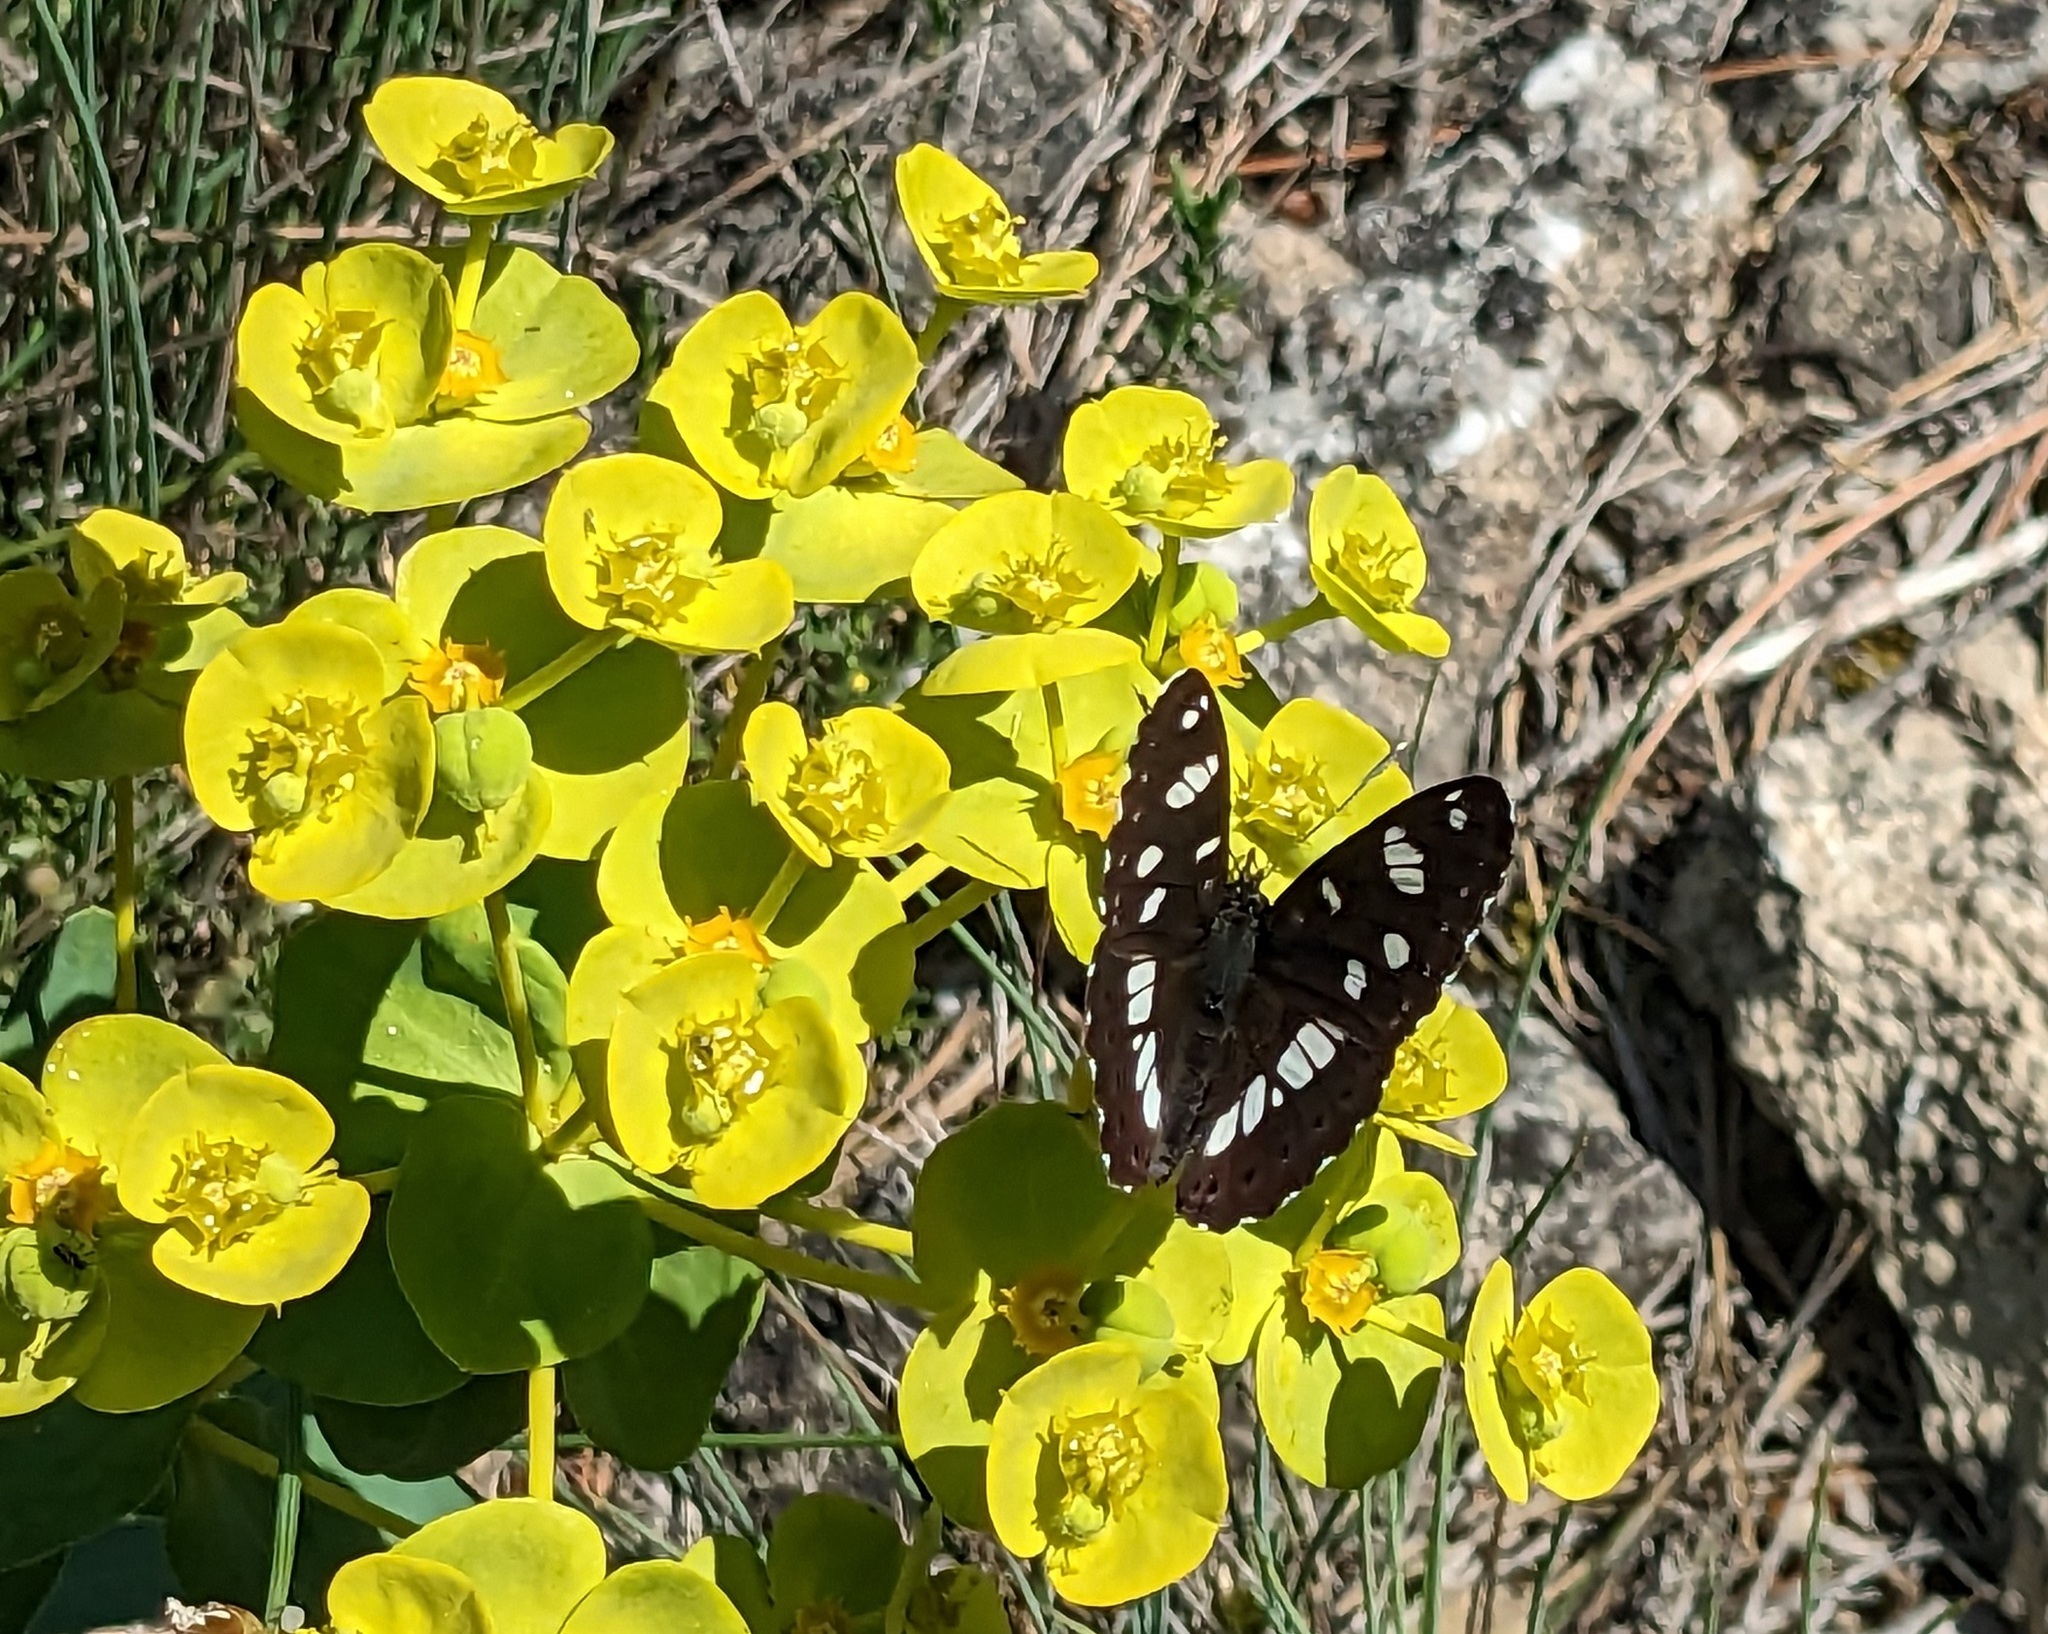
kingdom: Animalia
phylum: Arthropoda
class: Insecta
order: Lepidoptera
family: Nymphalidae
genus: Limenitis
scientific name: Limenitis reducta
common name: Southern white admiral
